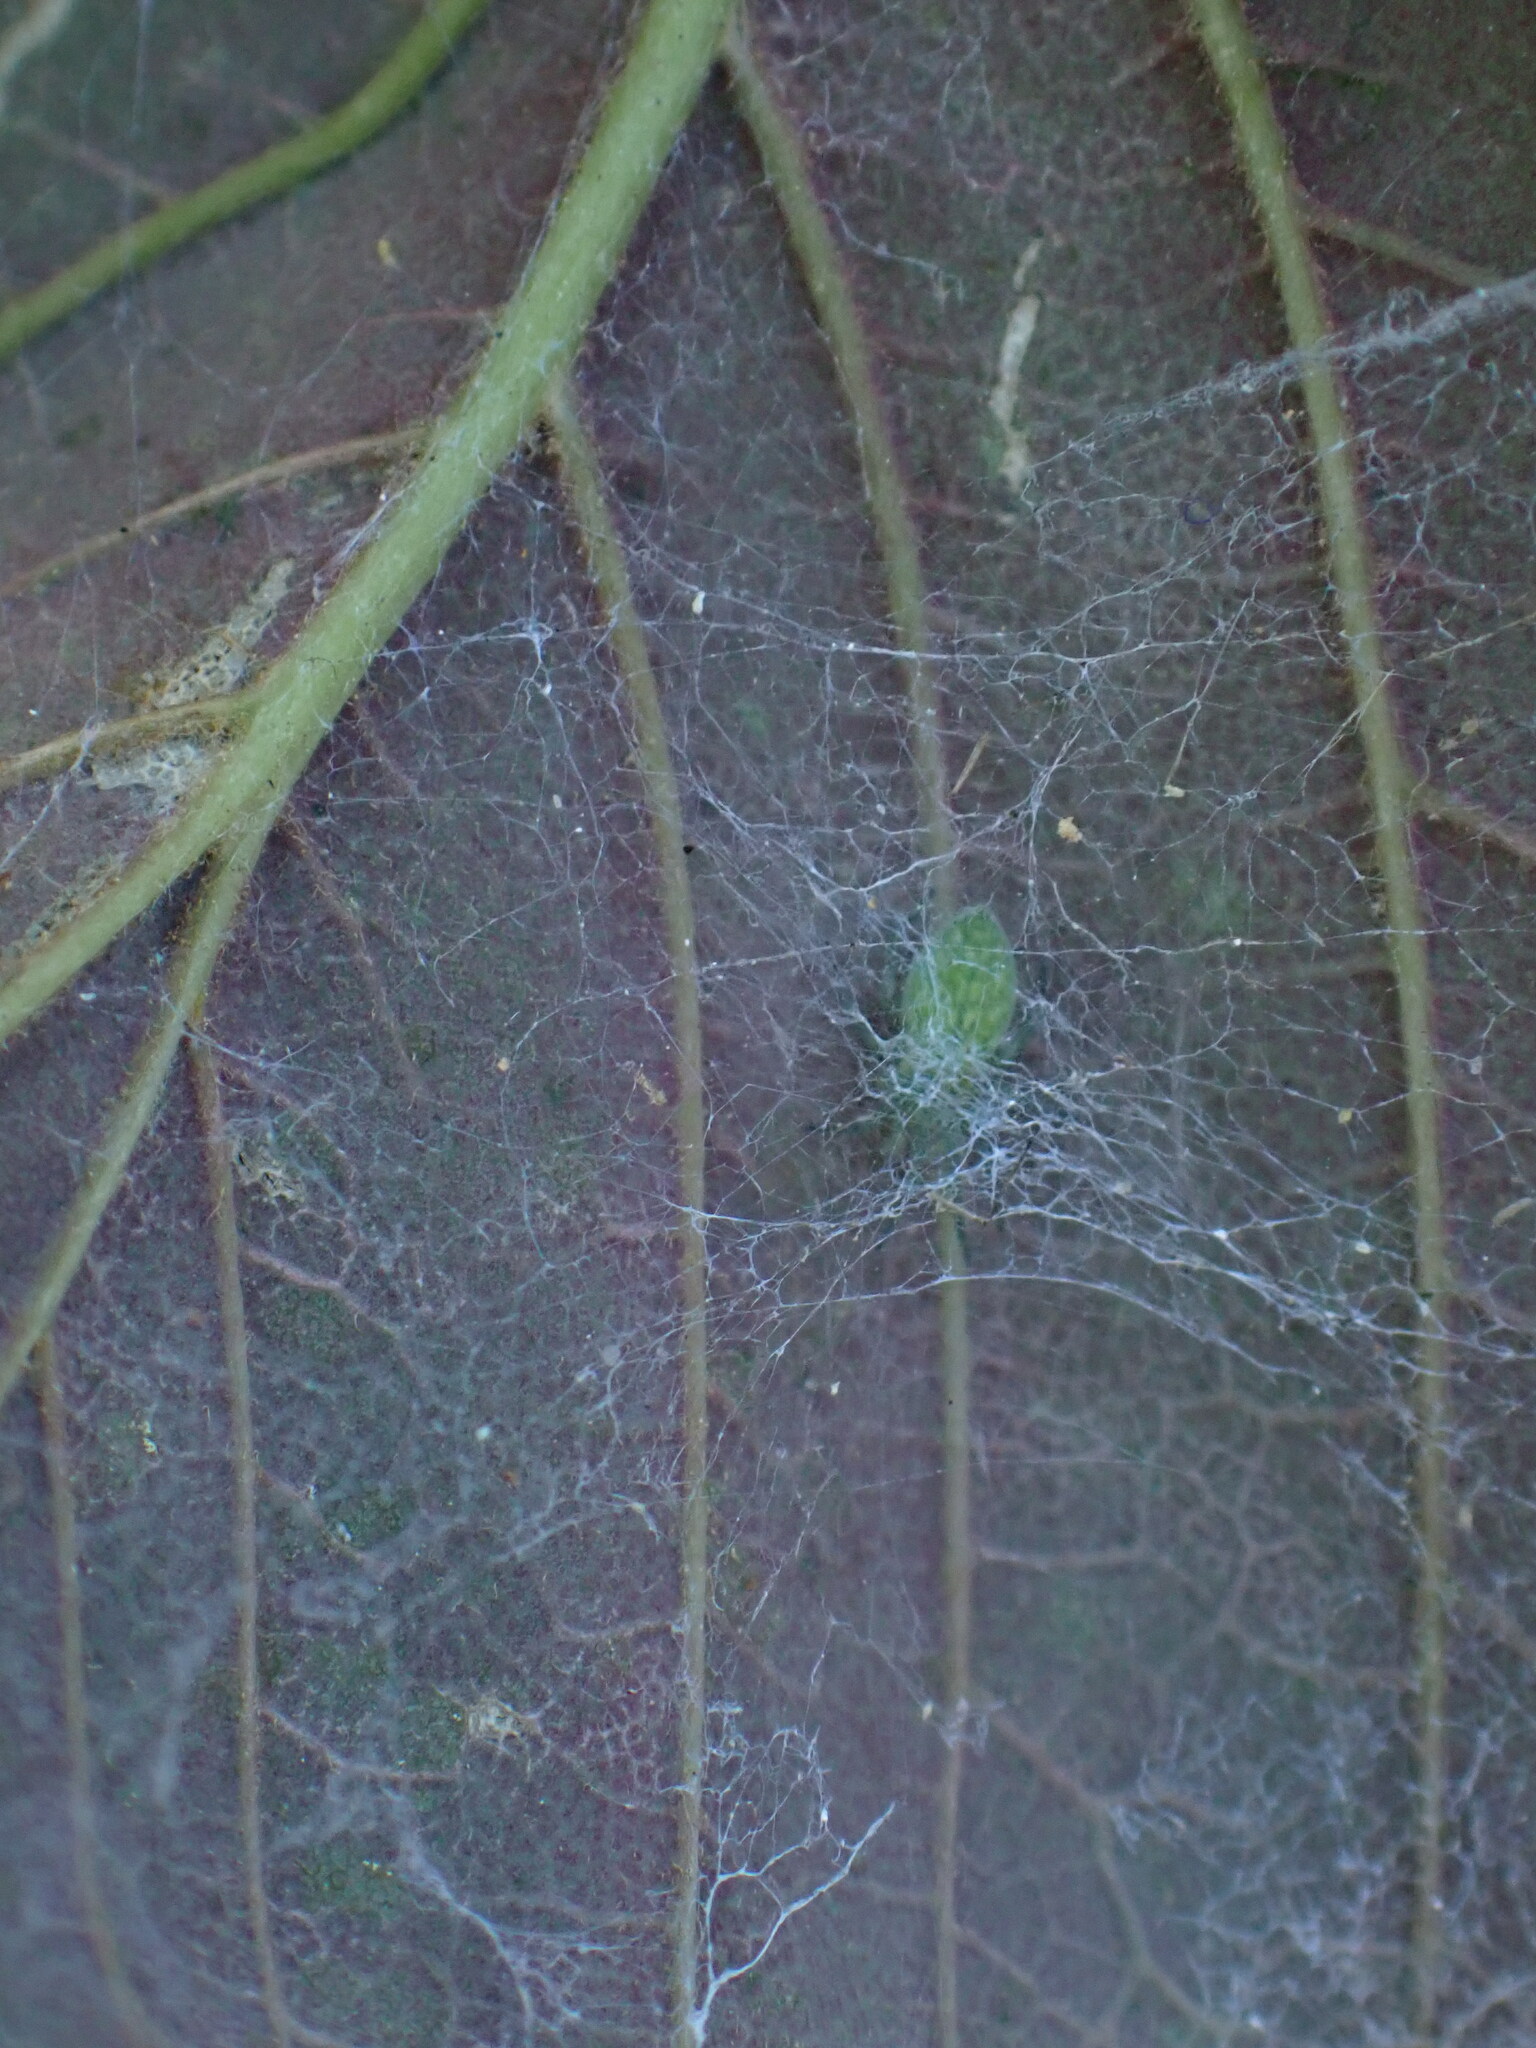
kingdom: Animalia
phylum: Arthropoda
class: Arachnida
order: Araneae
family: Dictynidae
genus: Nigma
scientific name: Nigma walckenaeri
